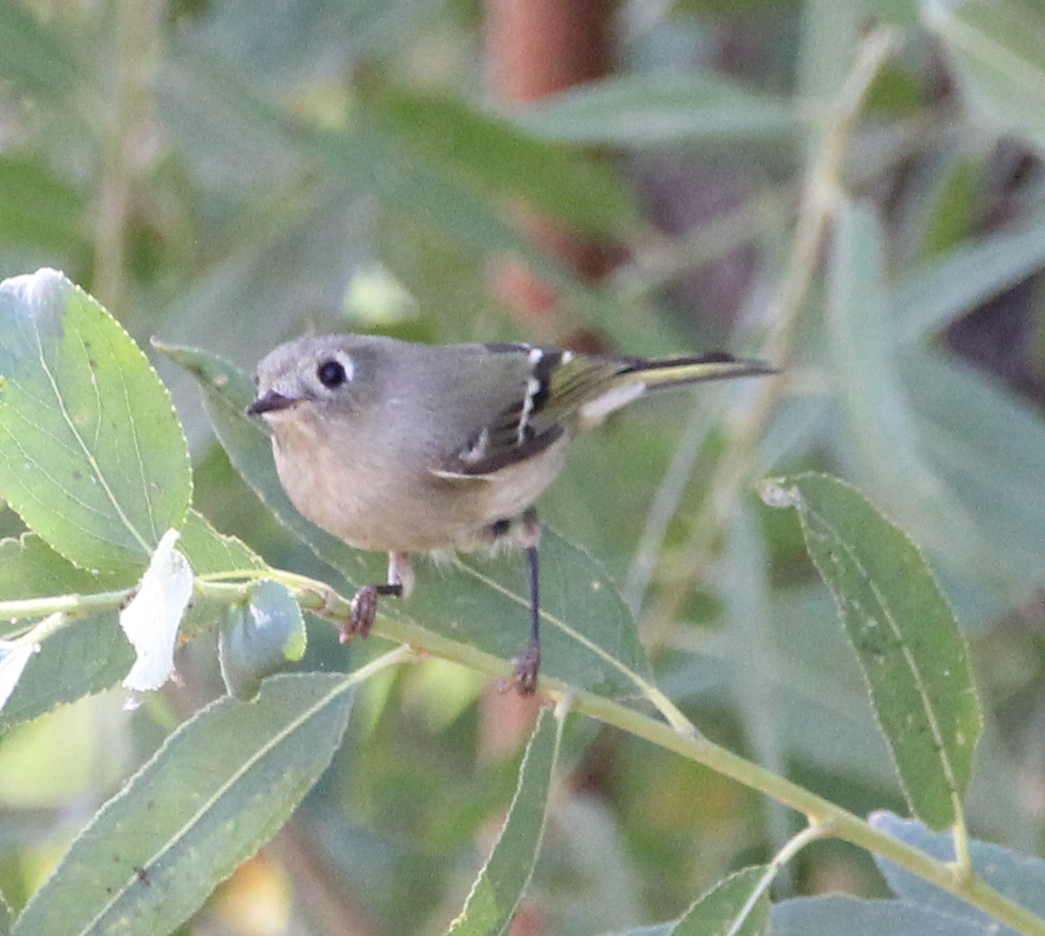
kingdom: Animalia
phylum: Chordata
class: Aves
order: Passeriformes
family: Regulidae
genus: Regulus
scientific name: Regulus calendula
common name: Ruby-crowned kinglet
